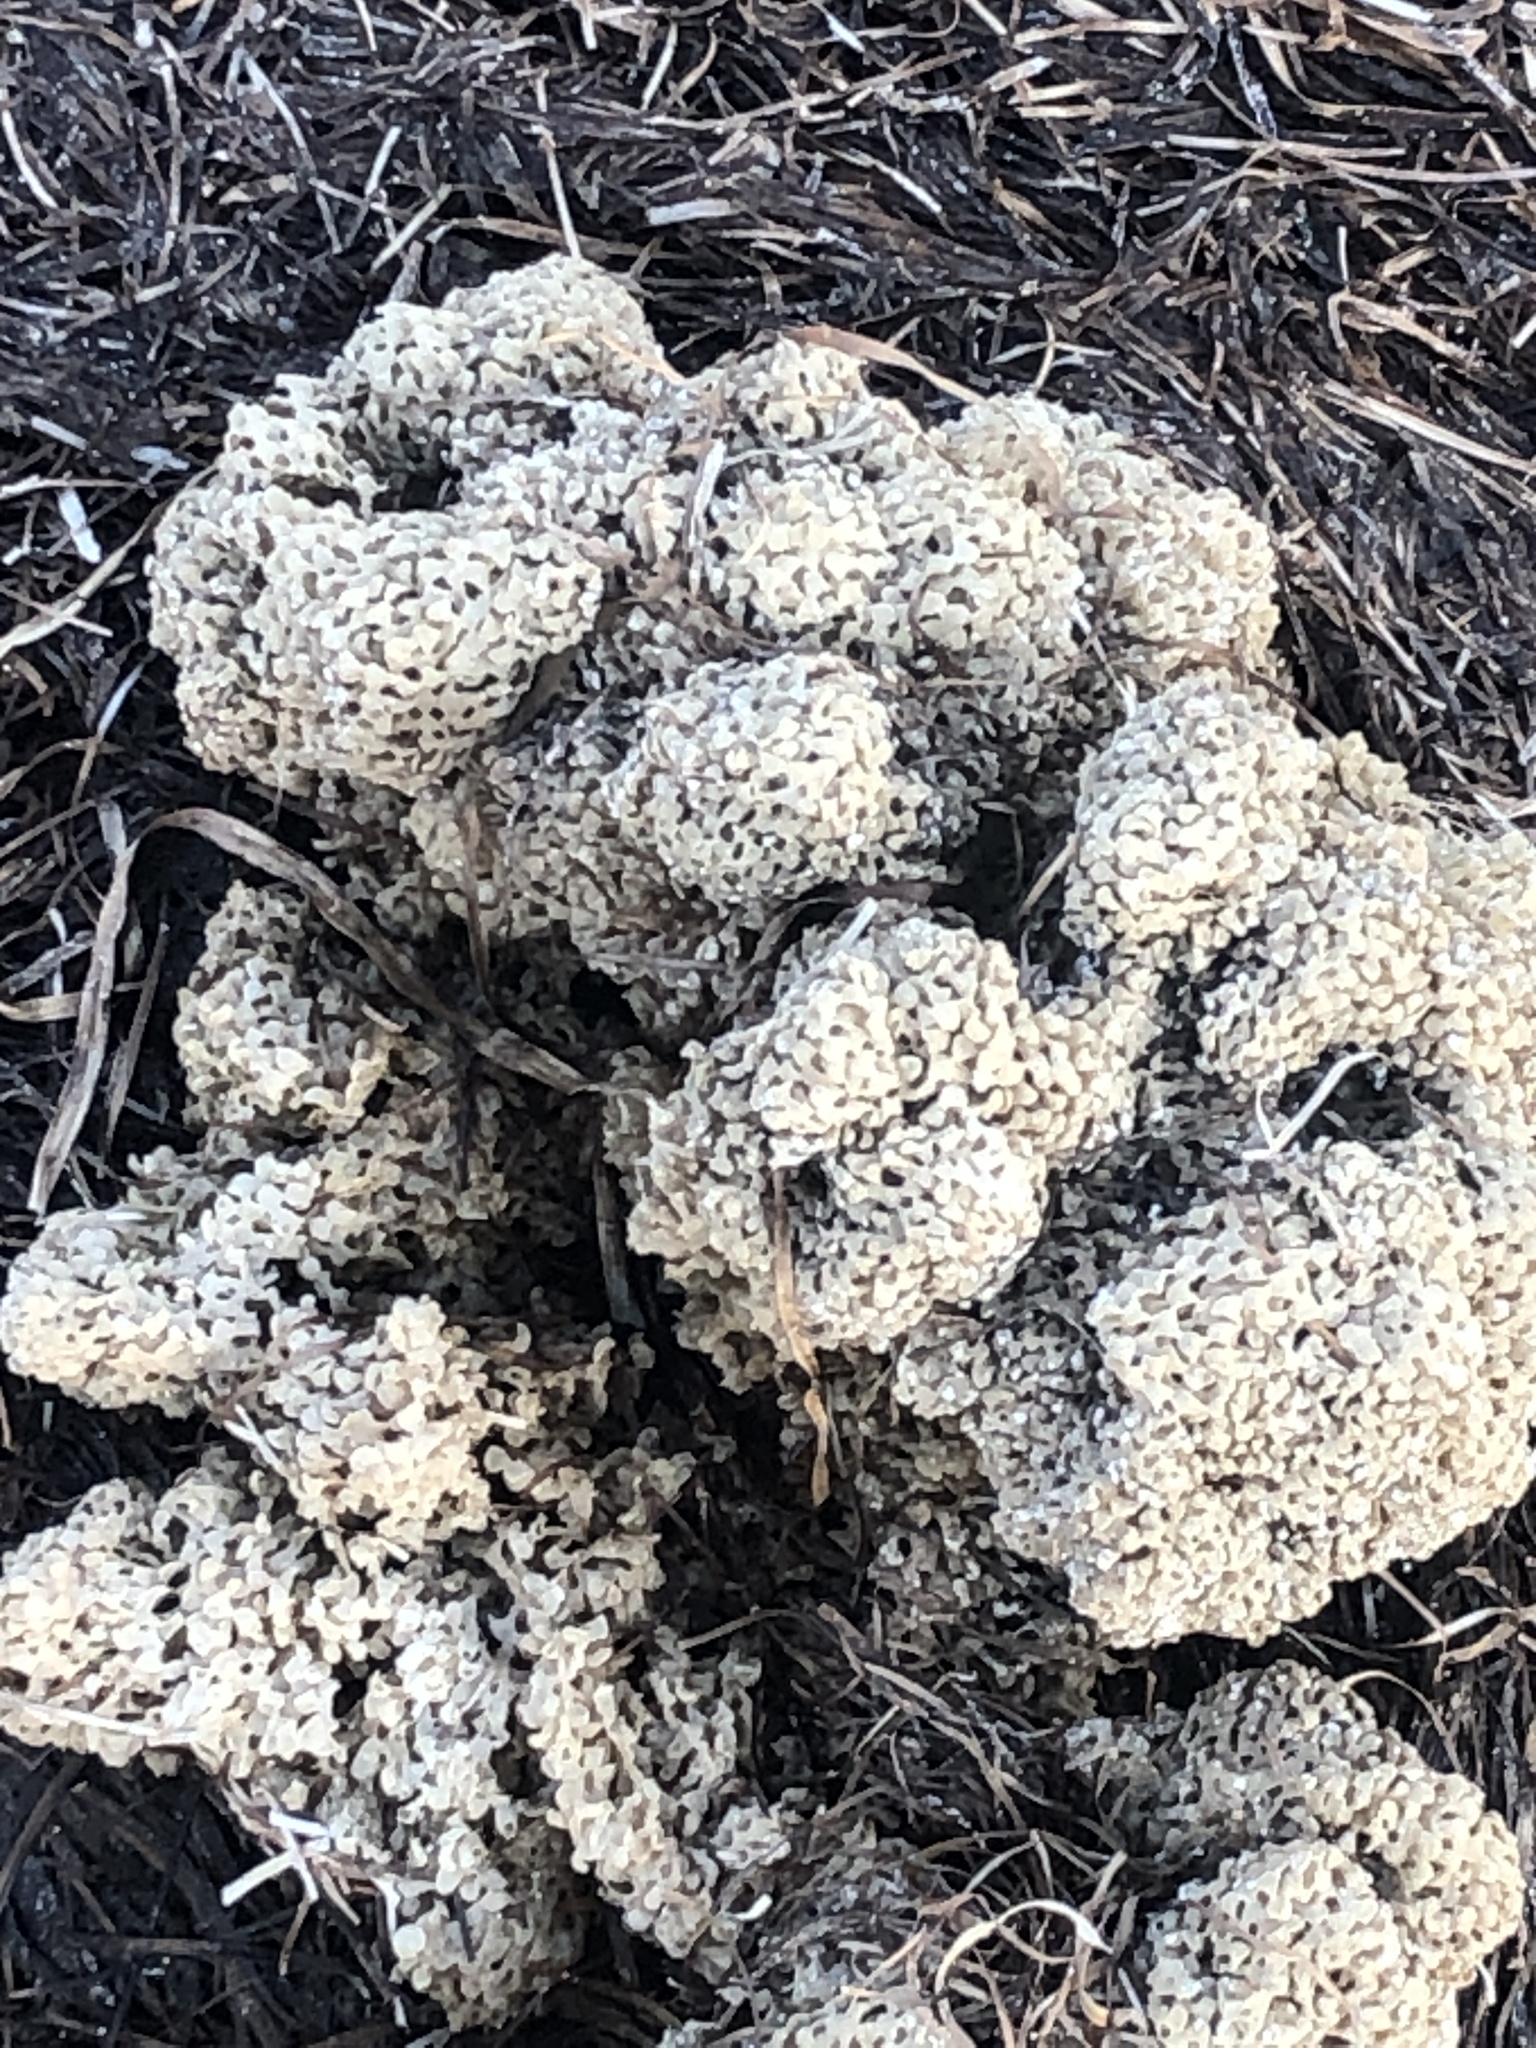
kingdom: Animalia
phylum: Mollusca
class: Gastropoda
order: Neogastropoda
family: Muricidae
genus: Hexaplex
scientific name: Hexaplex trunculus
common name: Banded dye-murex
